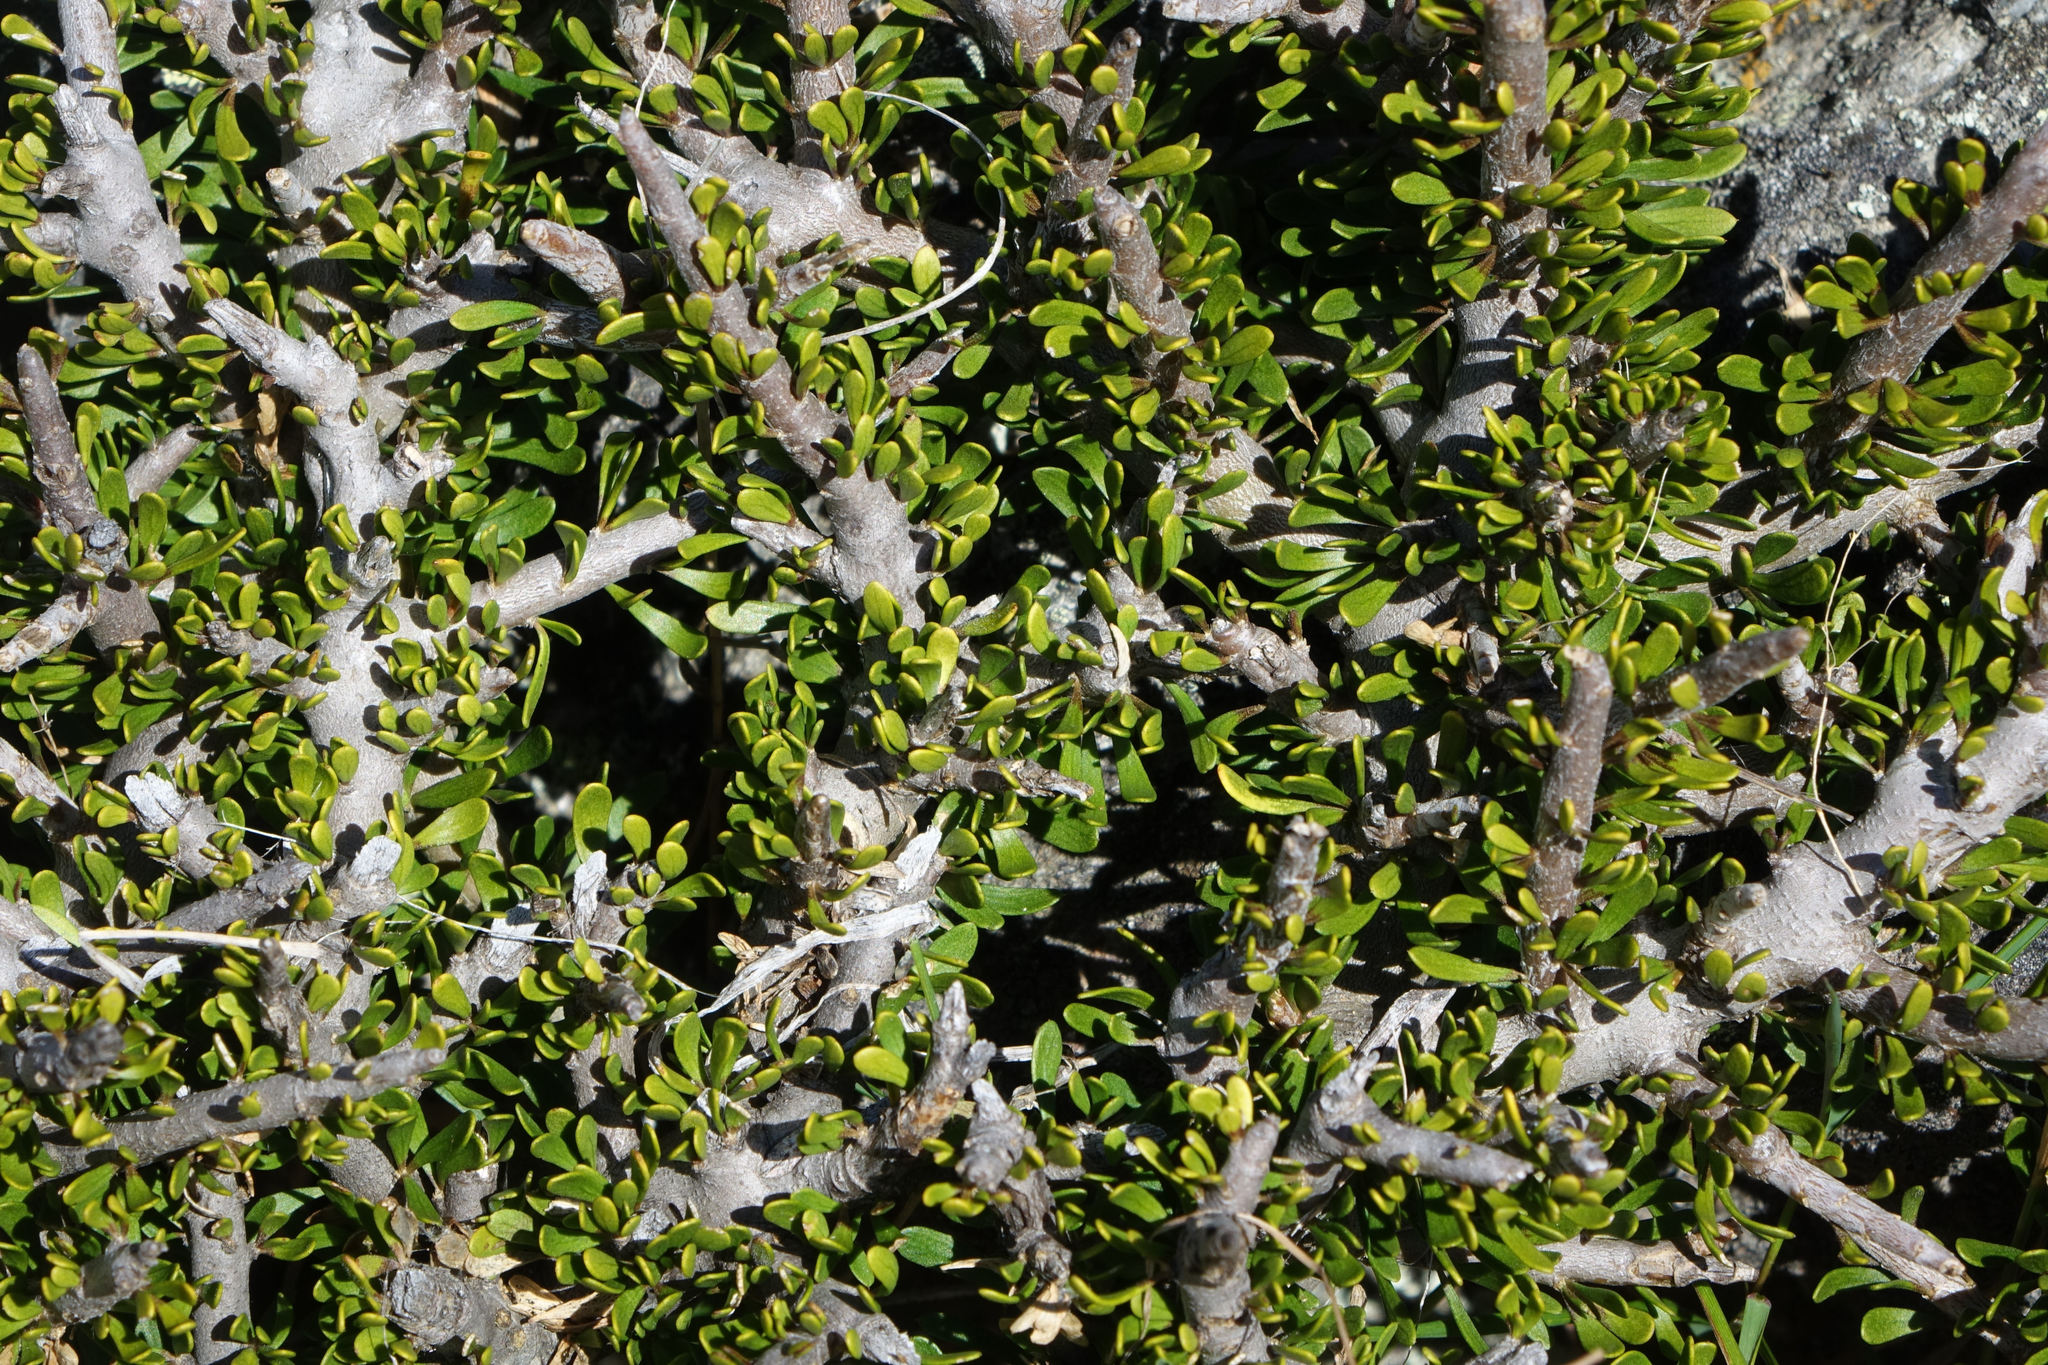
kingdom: Plantae
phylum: Tracheophyta
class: Magnoliopsida
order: Malpighiales
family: Violaceae
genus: Melicytus
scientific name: Melicytus alpinus
